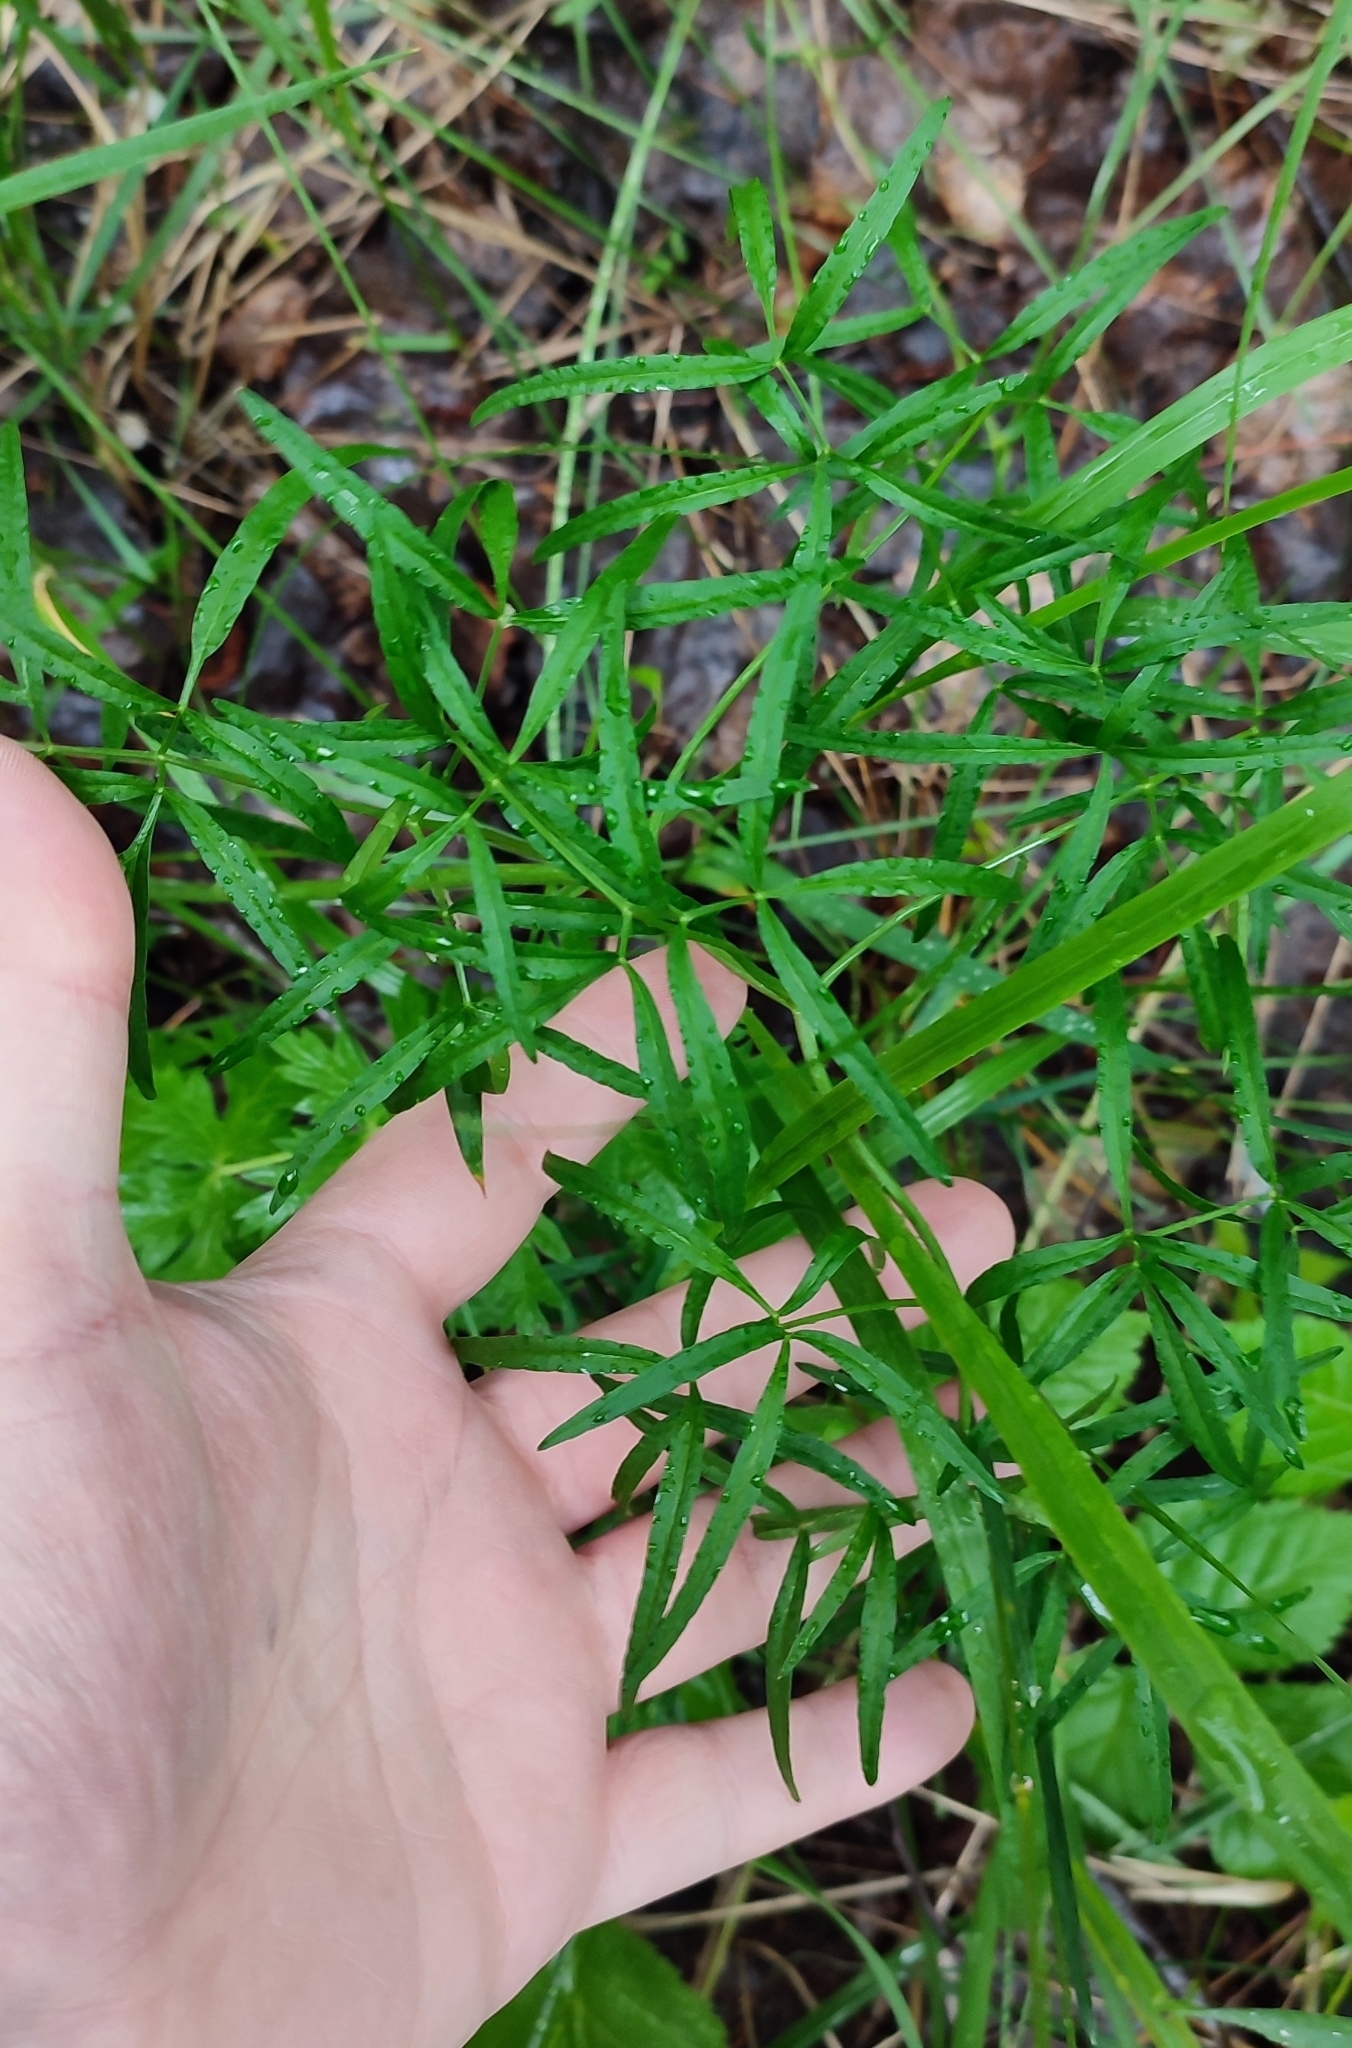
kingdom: Plantae
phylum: Tracheophyta
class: Magnoliopsida
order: Apiales
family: Apiaceae
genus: Cenolophium
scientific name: Cenolophium fischeri
